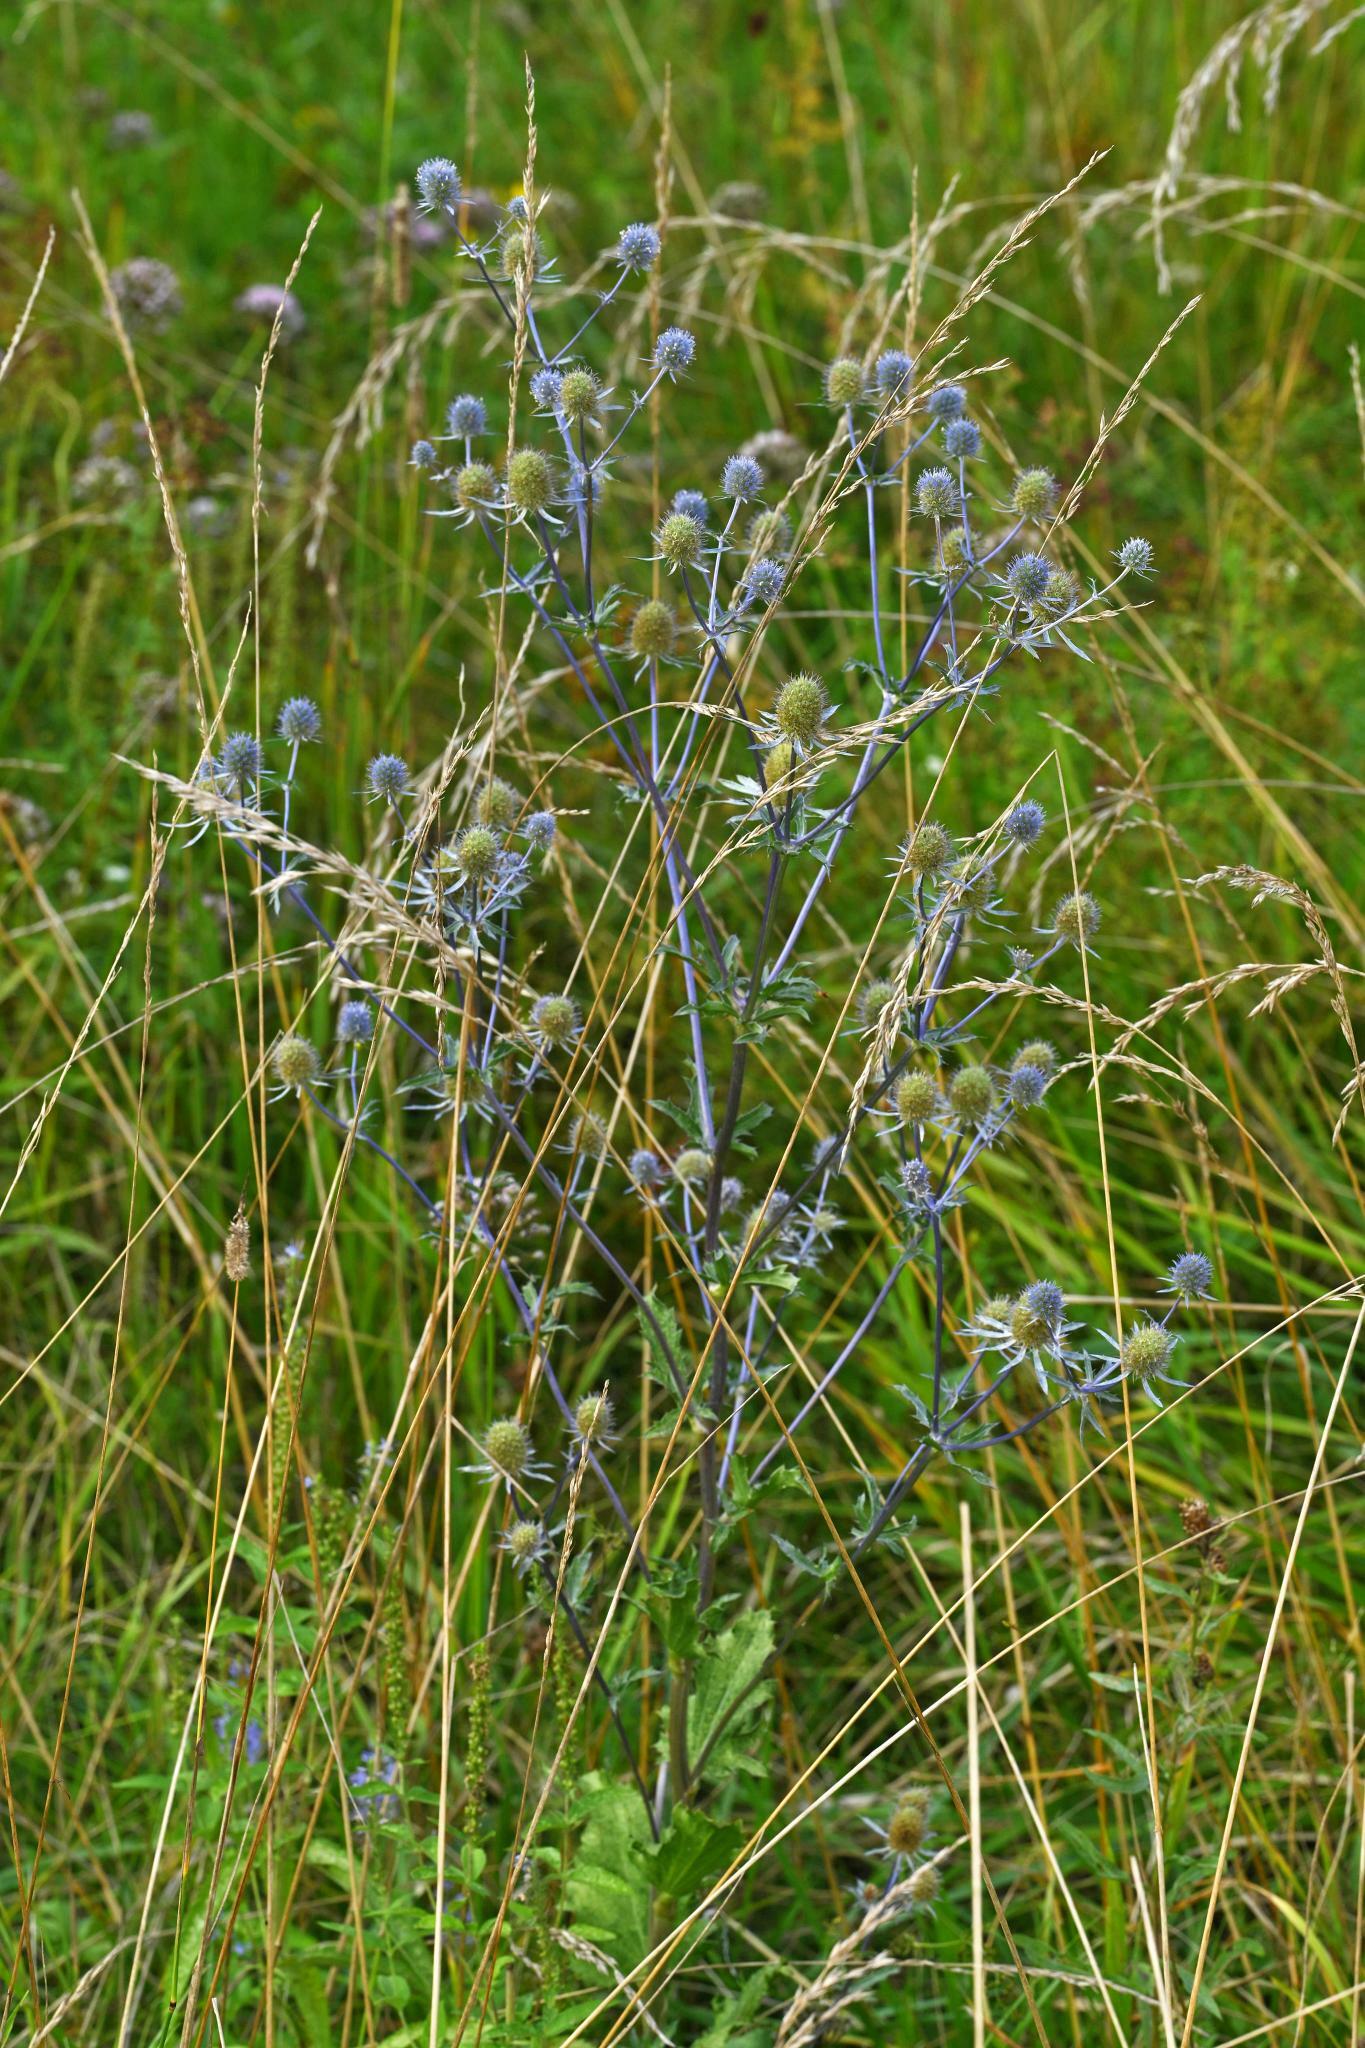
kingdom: Plantae
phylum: Tracheophyta
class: Magnoliopsida
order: Apiales
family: Apiaceae
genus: Eryngium
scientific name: Eryngium planum
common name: Blue eryngo
